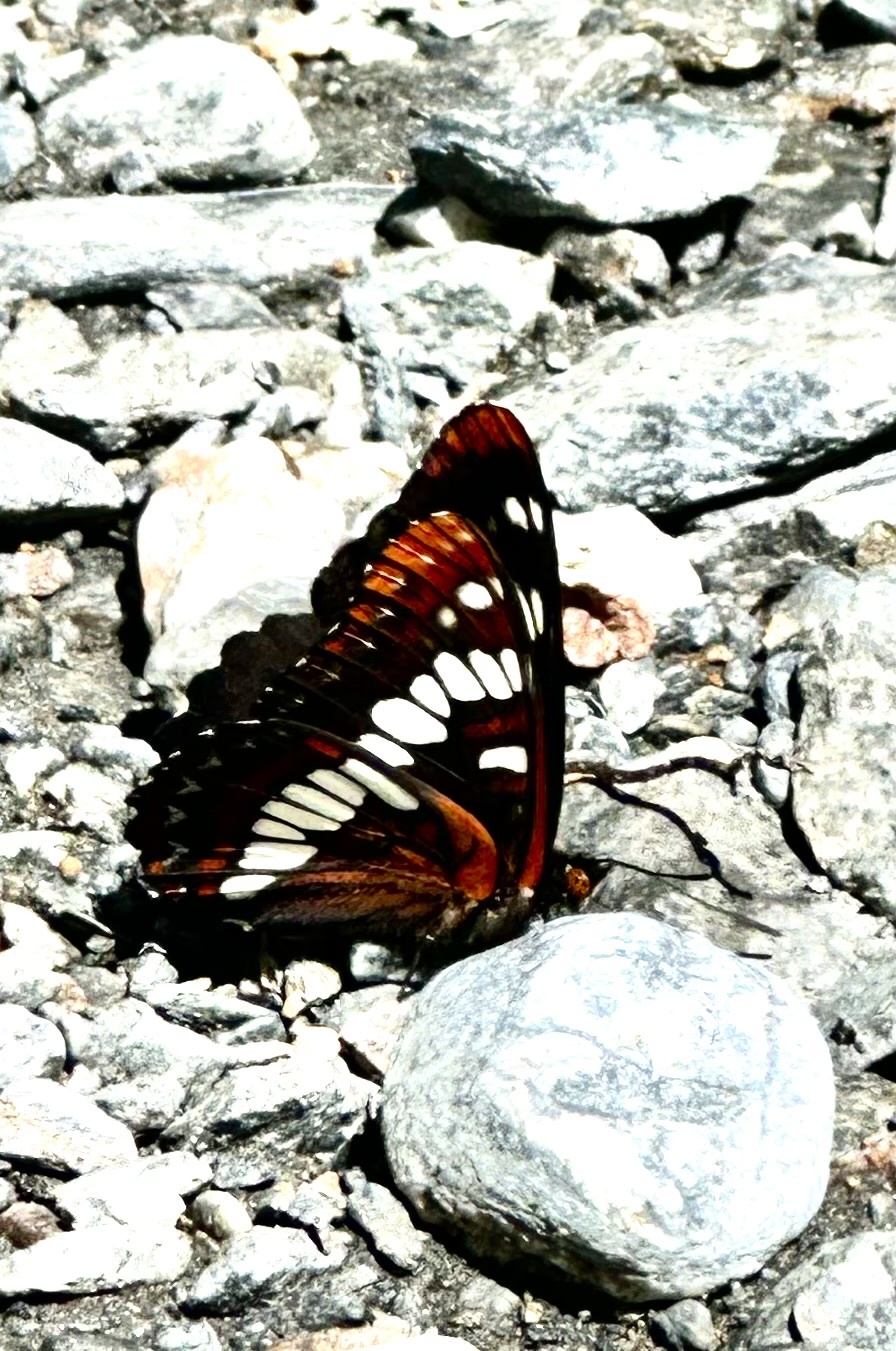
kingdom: Animalia
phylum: Arthropoda
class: Insecta
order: Lepidoptera
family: Nymphalidae
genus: Limenitis
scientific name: Limenitis lorquini
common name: Lorquin's admiral
